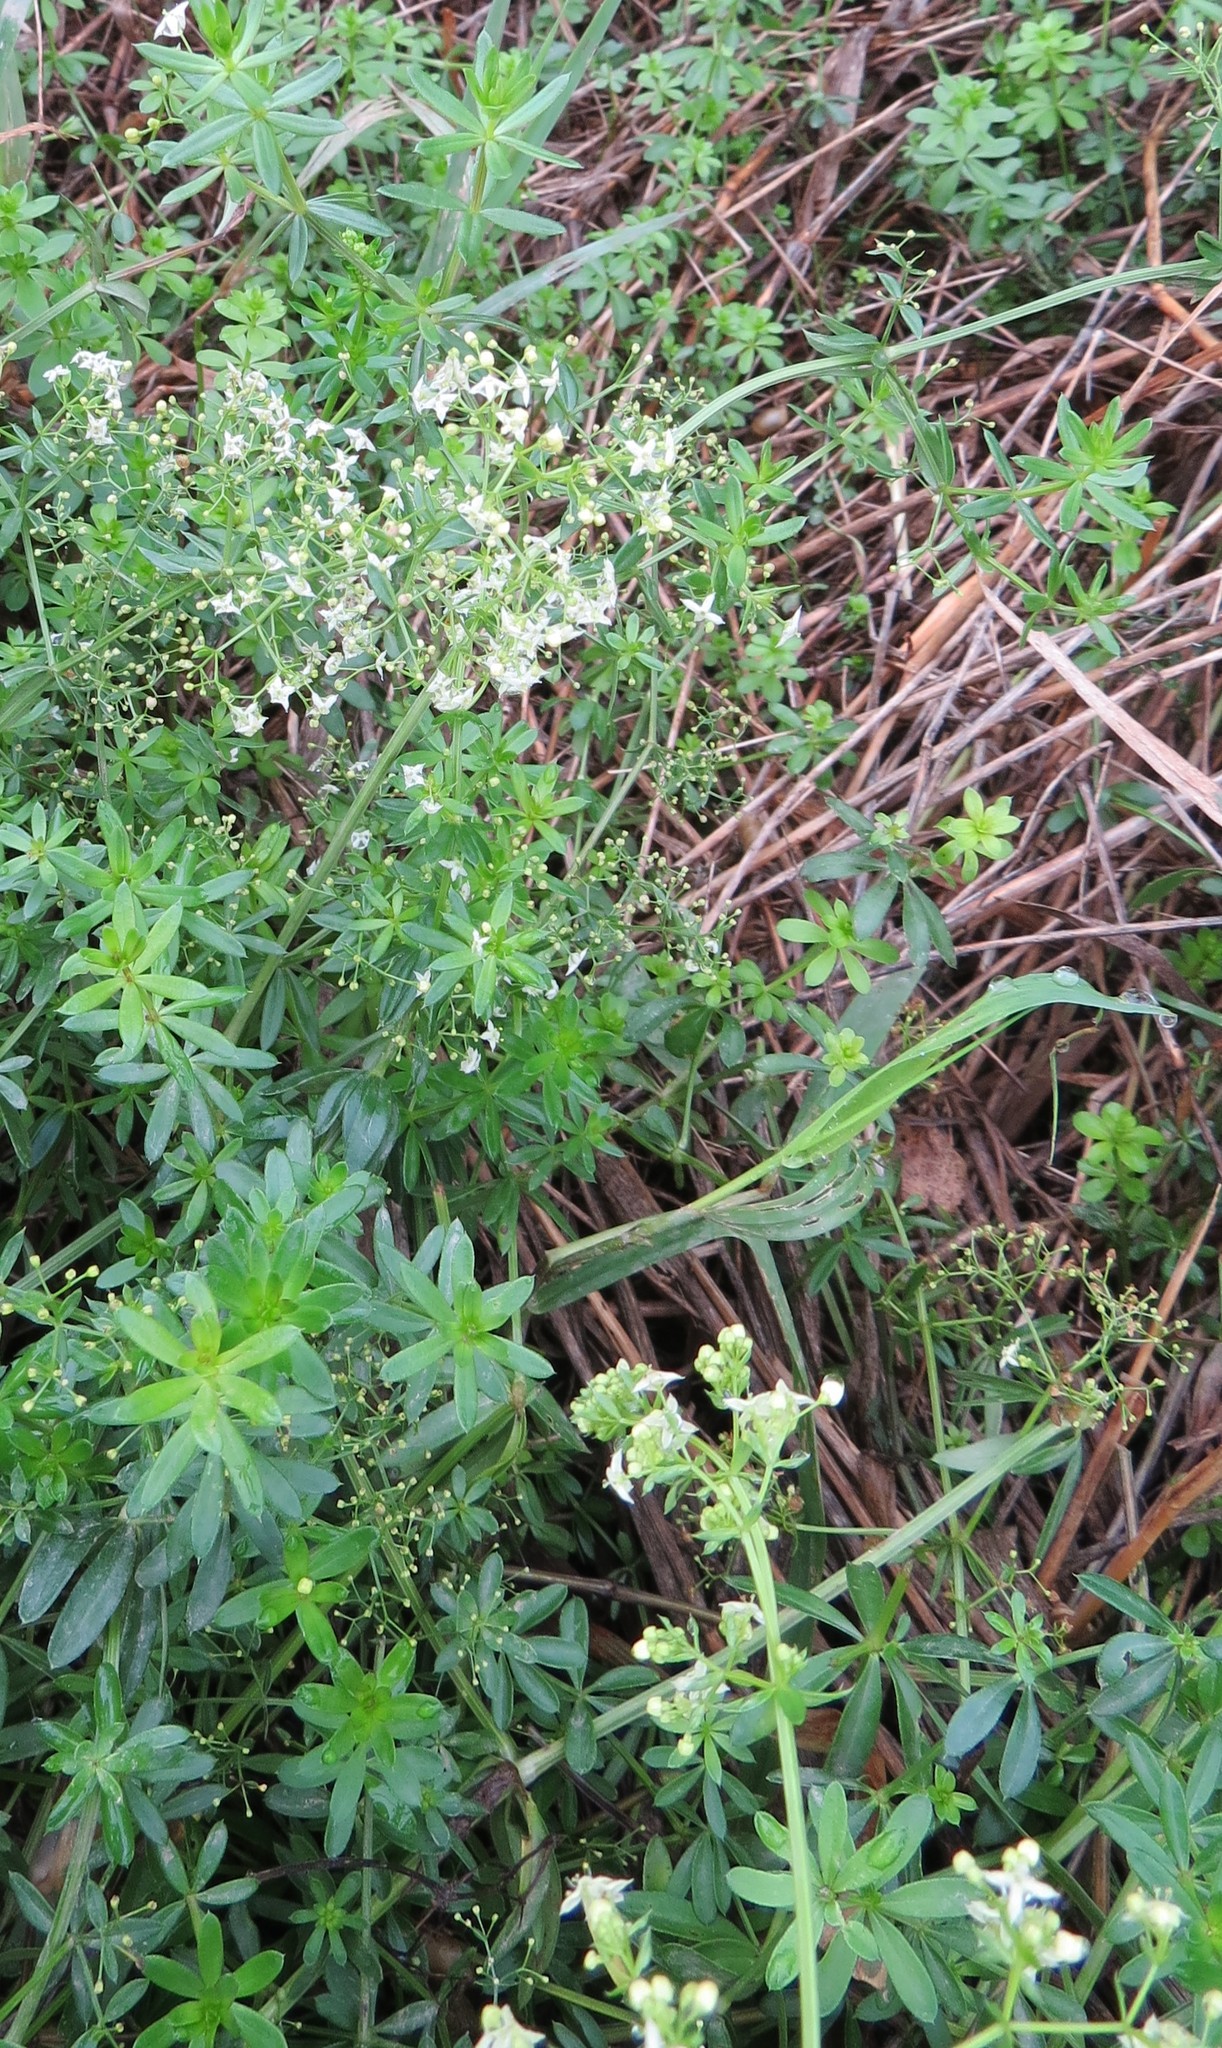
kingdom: Plantae
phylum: Tracheophyta
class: Magnoliopsida
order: Gentianales
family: Rubiaceae
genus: Galium
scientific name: Galium album
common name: White bedstraw
